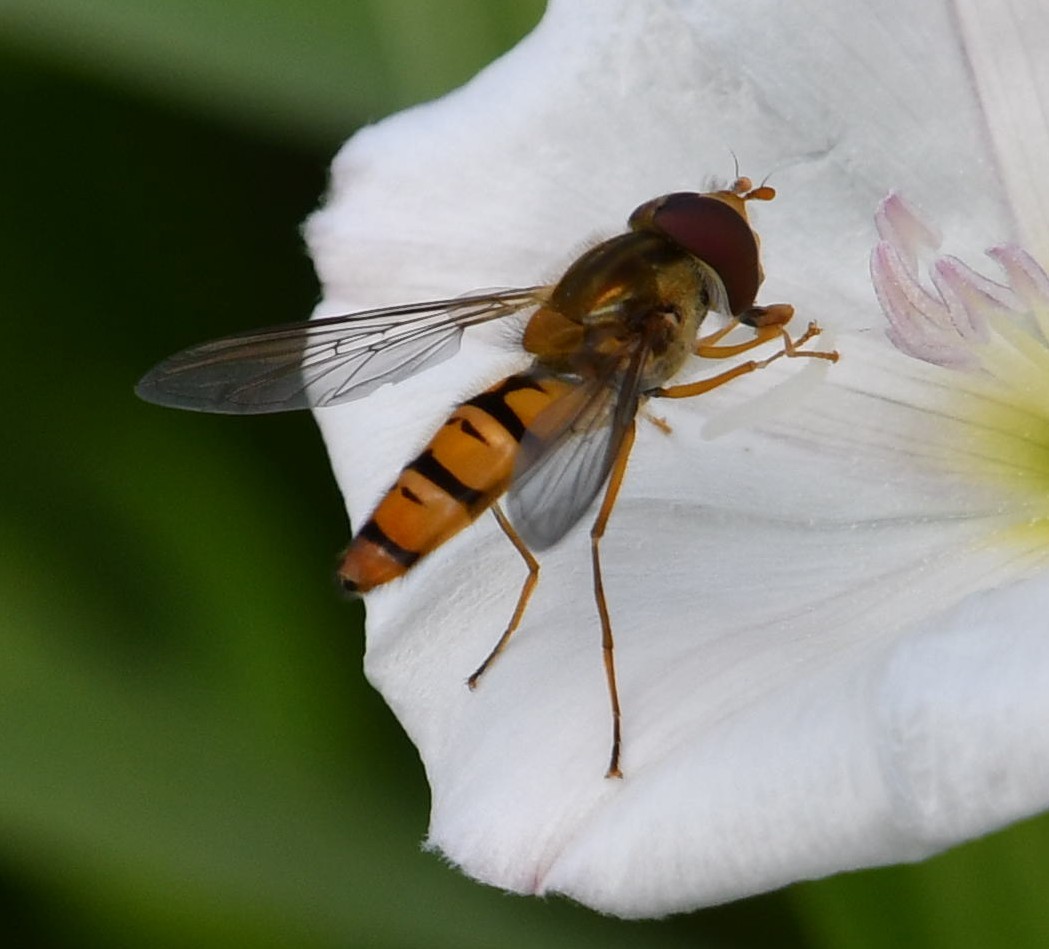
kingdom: Animalia
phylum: Arthropoda
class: Insecta
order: Diptera
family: Syrphidae
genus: Episyrphus
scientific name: Episyrphus balteatus
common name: Marmalade hoverfly
